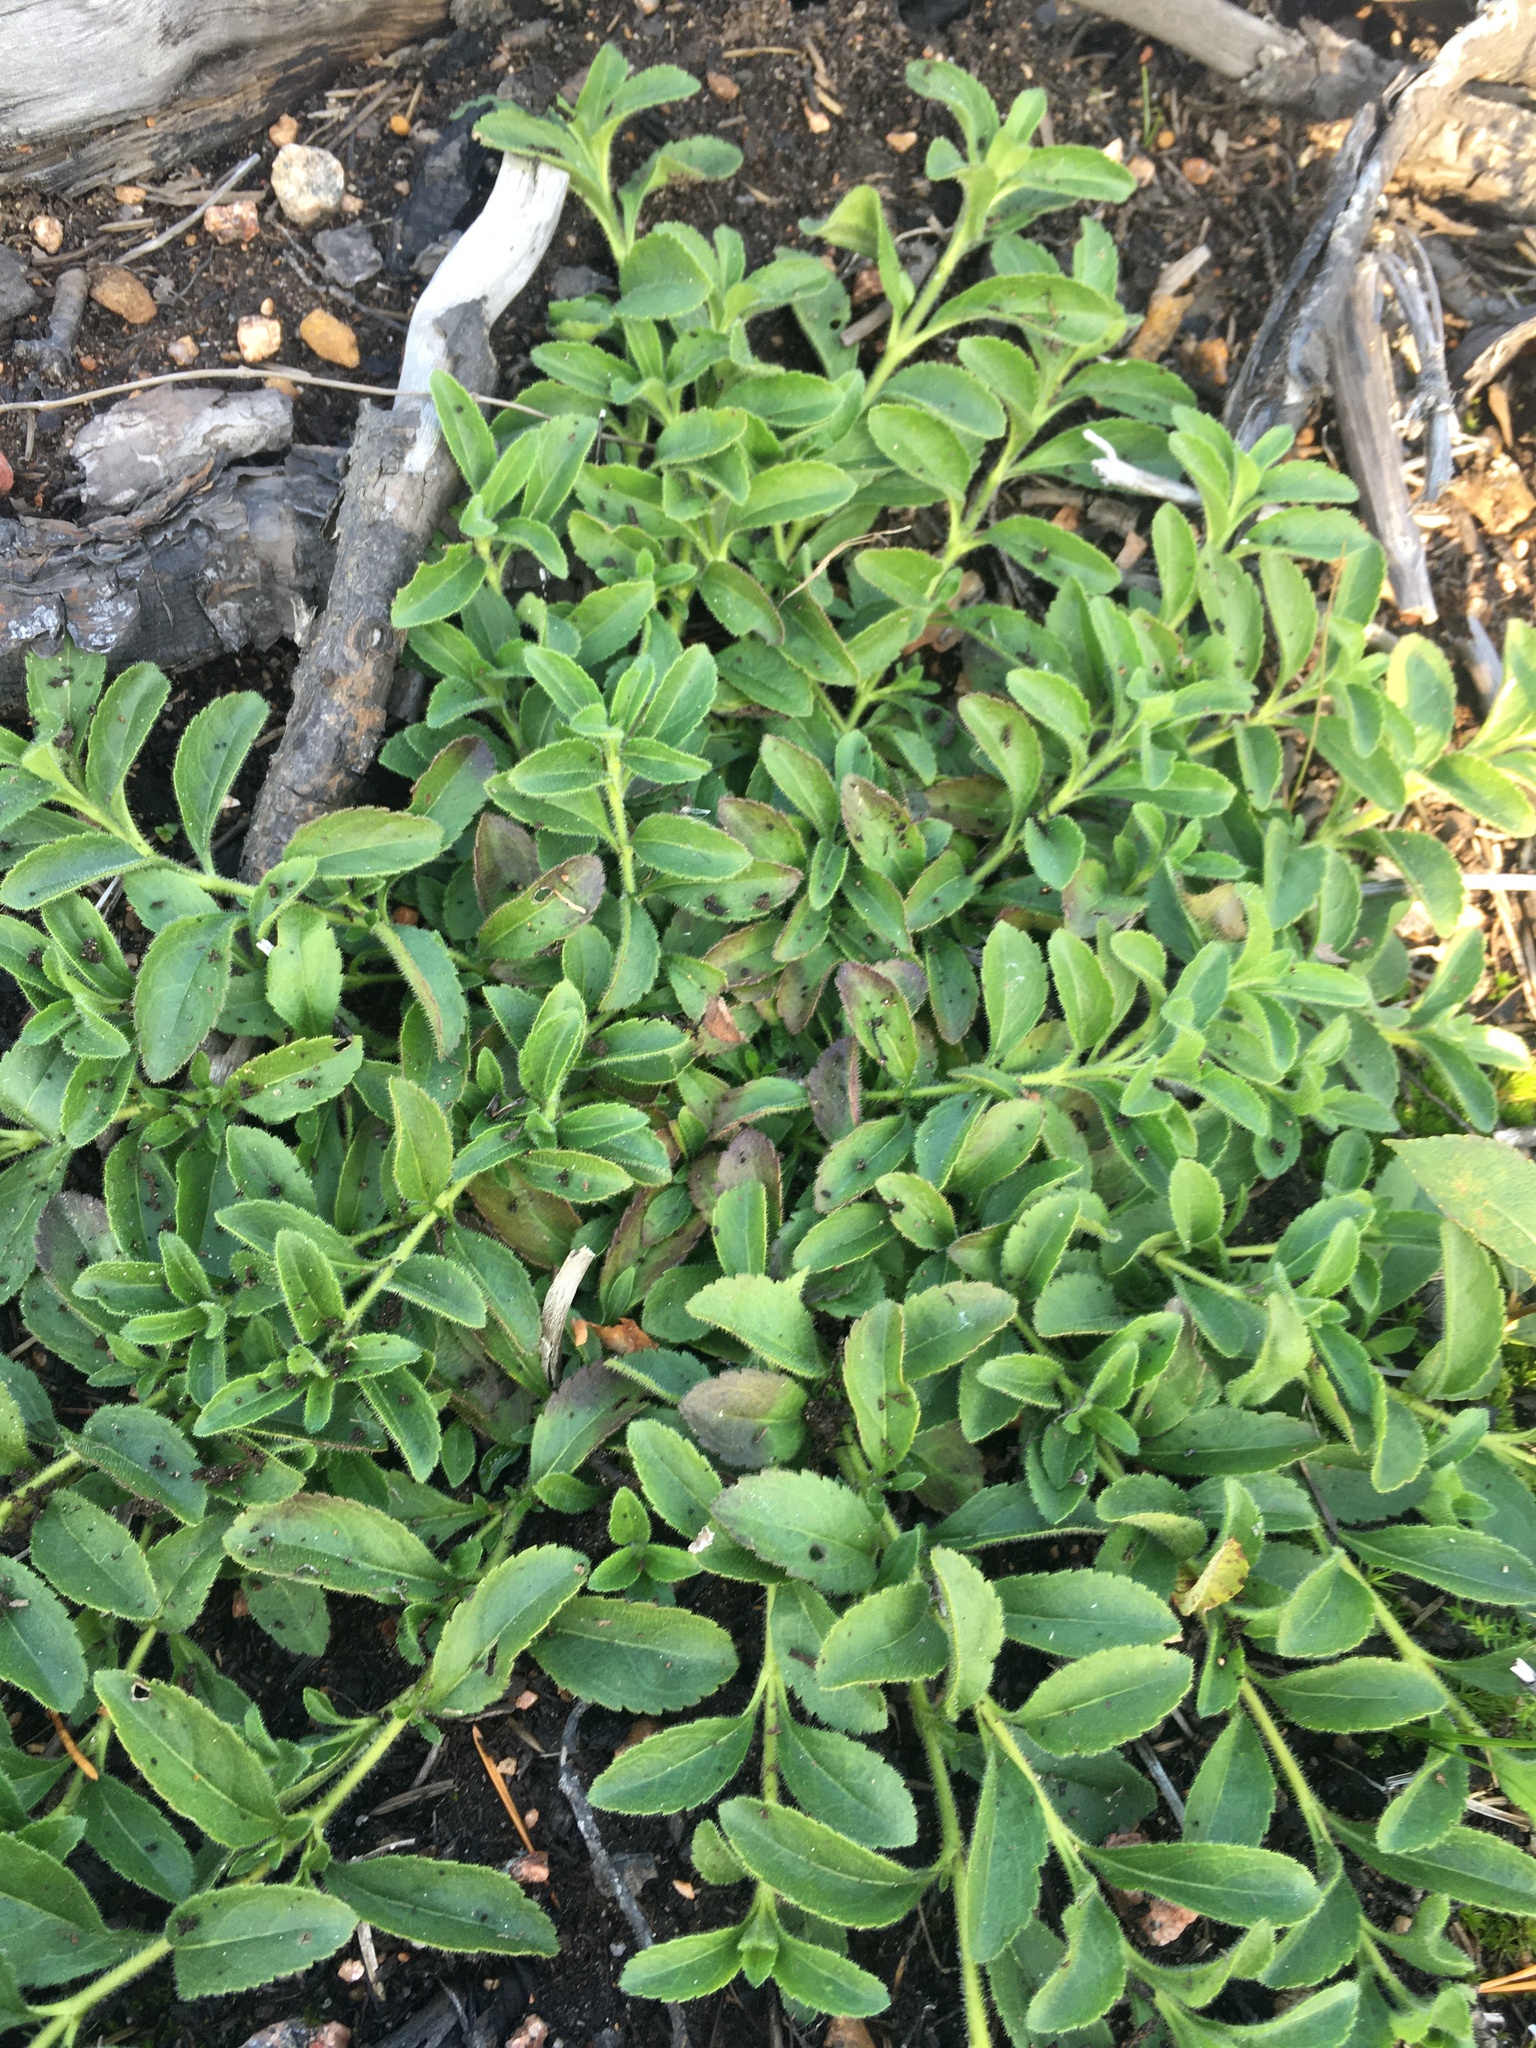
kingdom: Plantae
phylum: Tracheophyta
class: Magnoliopsida
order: Lamiales
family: Plantaginaceae
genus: Veronica
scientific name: Veronica officinalis
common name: Common speedwell
